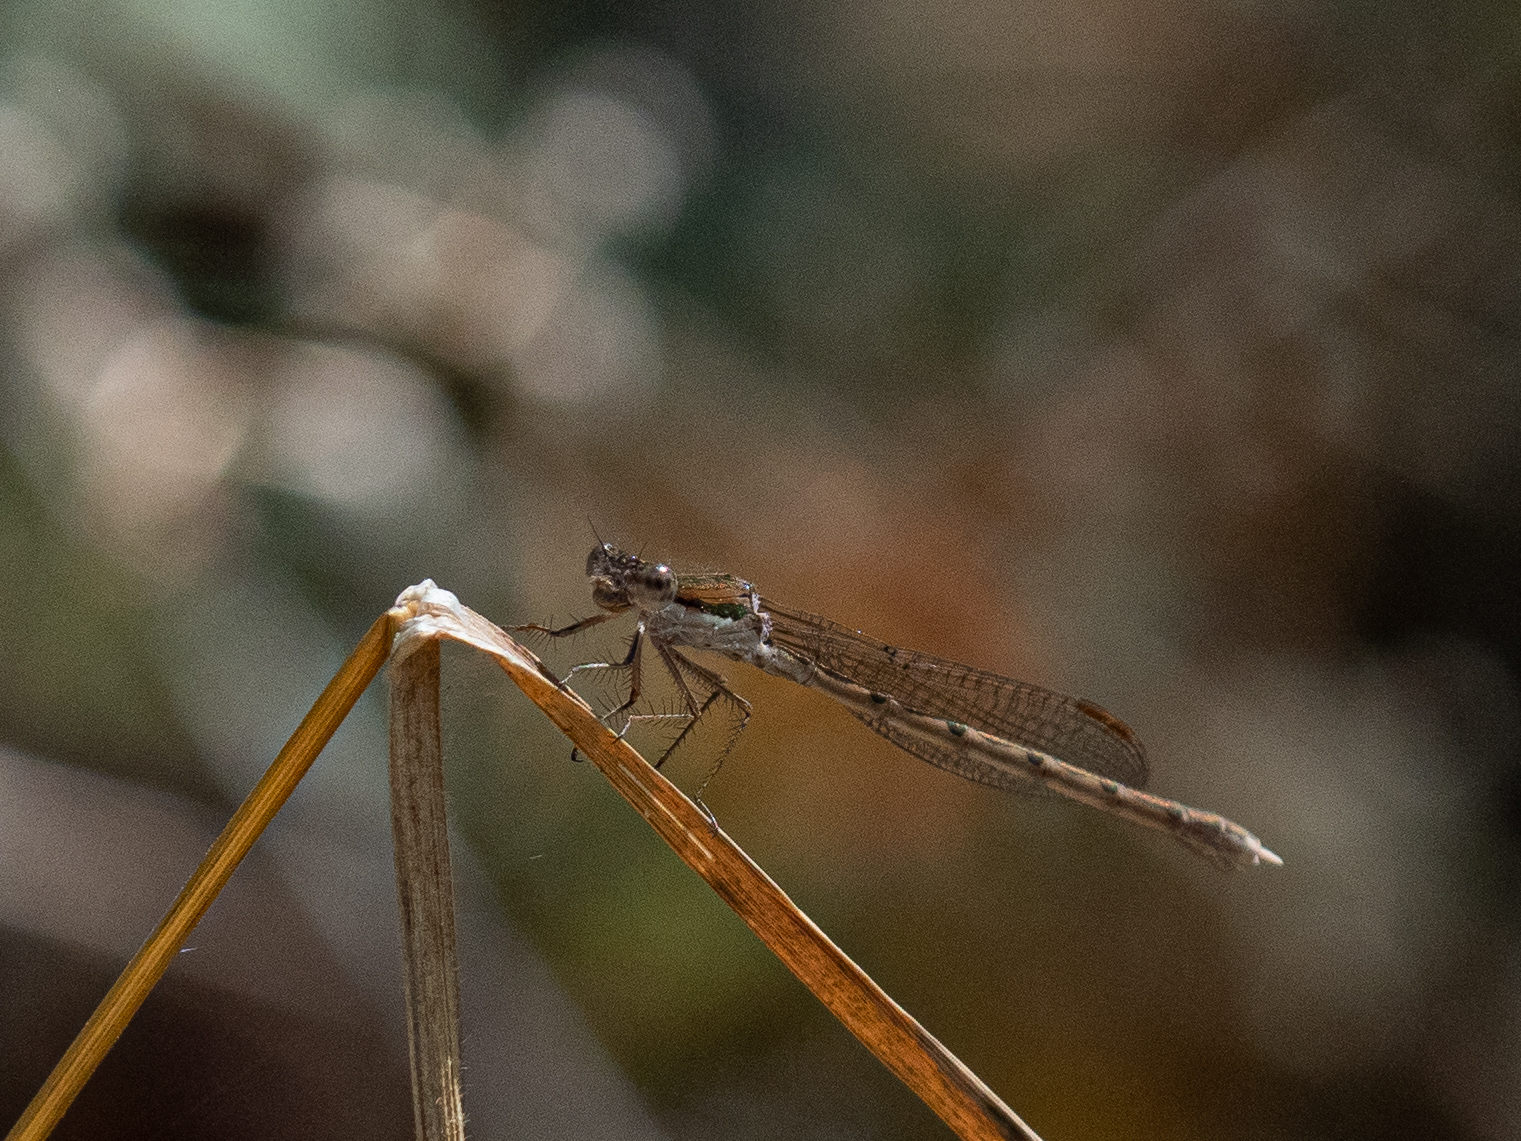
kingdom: Animalia
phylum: Arthropoda
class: Insecta
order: Odonata
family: Lestidae
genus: Sympecma
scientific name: Sympecma fusca
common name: Common winter damsel
